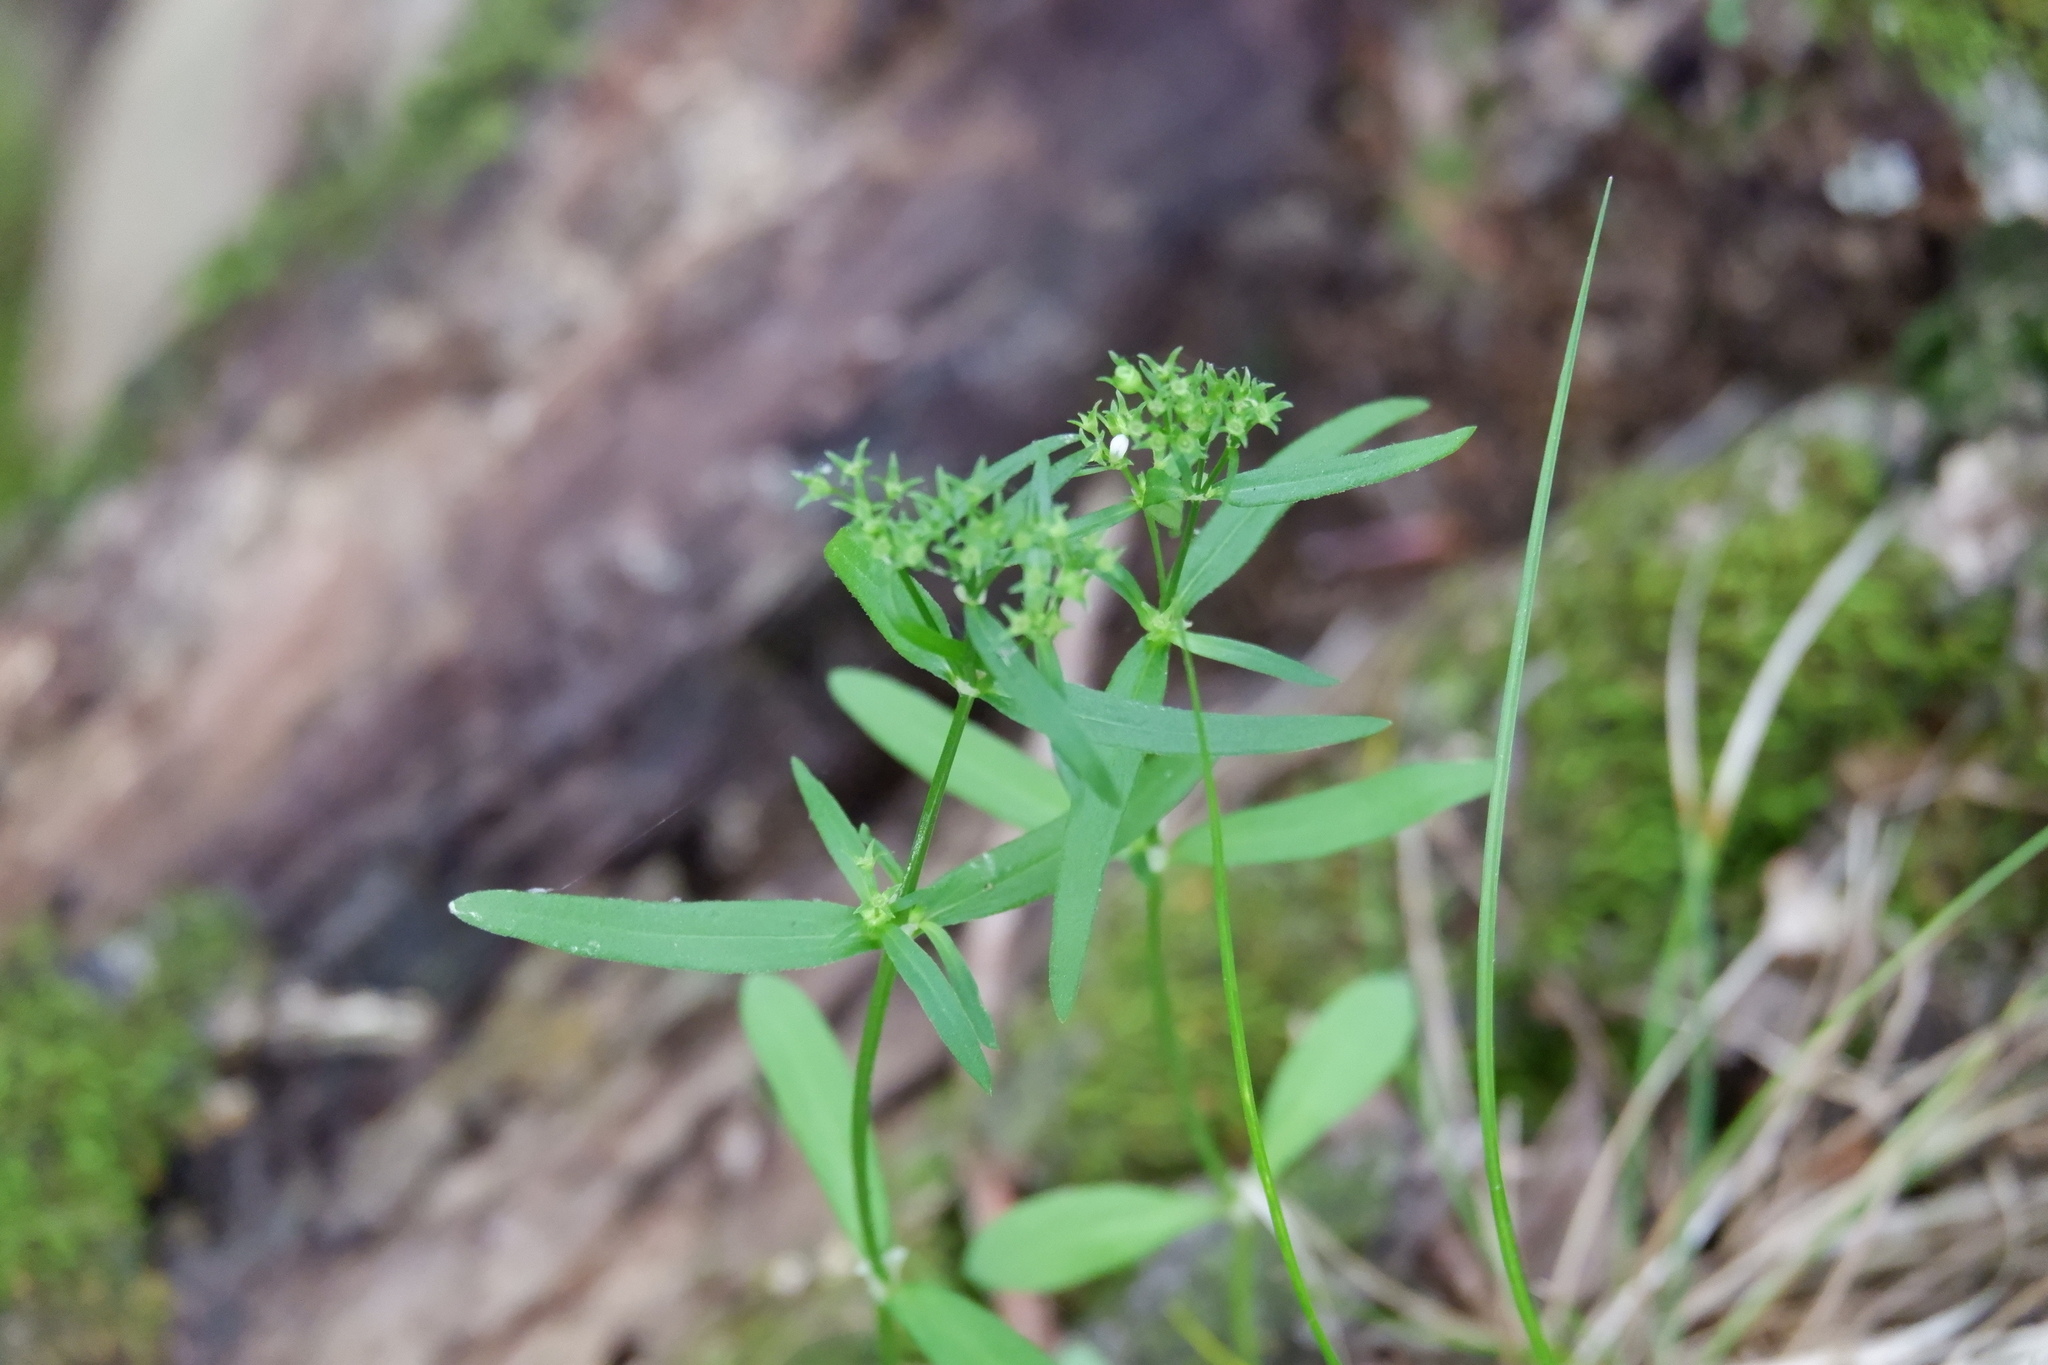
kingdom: Plantae
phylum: Tracheophyta
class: Magnoliopsida
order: Gentianales
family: Rubiaceae
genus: Houstonia
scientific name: Houstonia longifolia
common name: Long-leaved bluets
